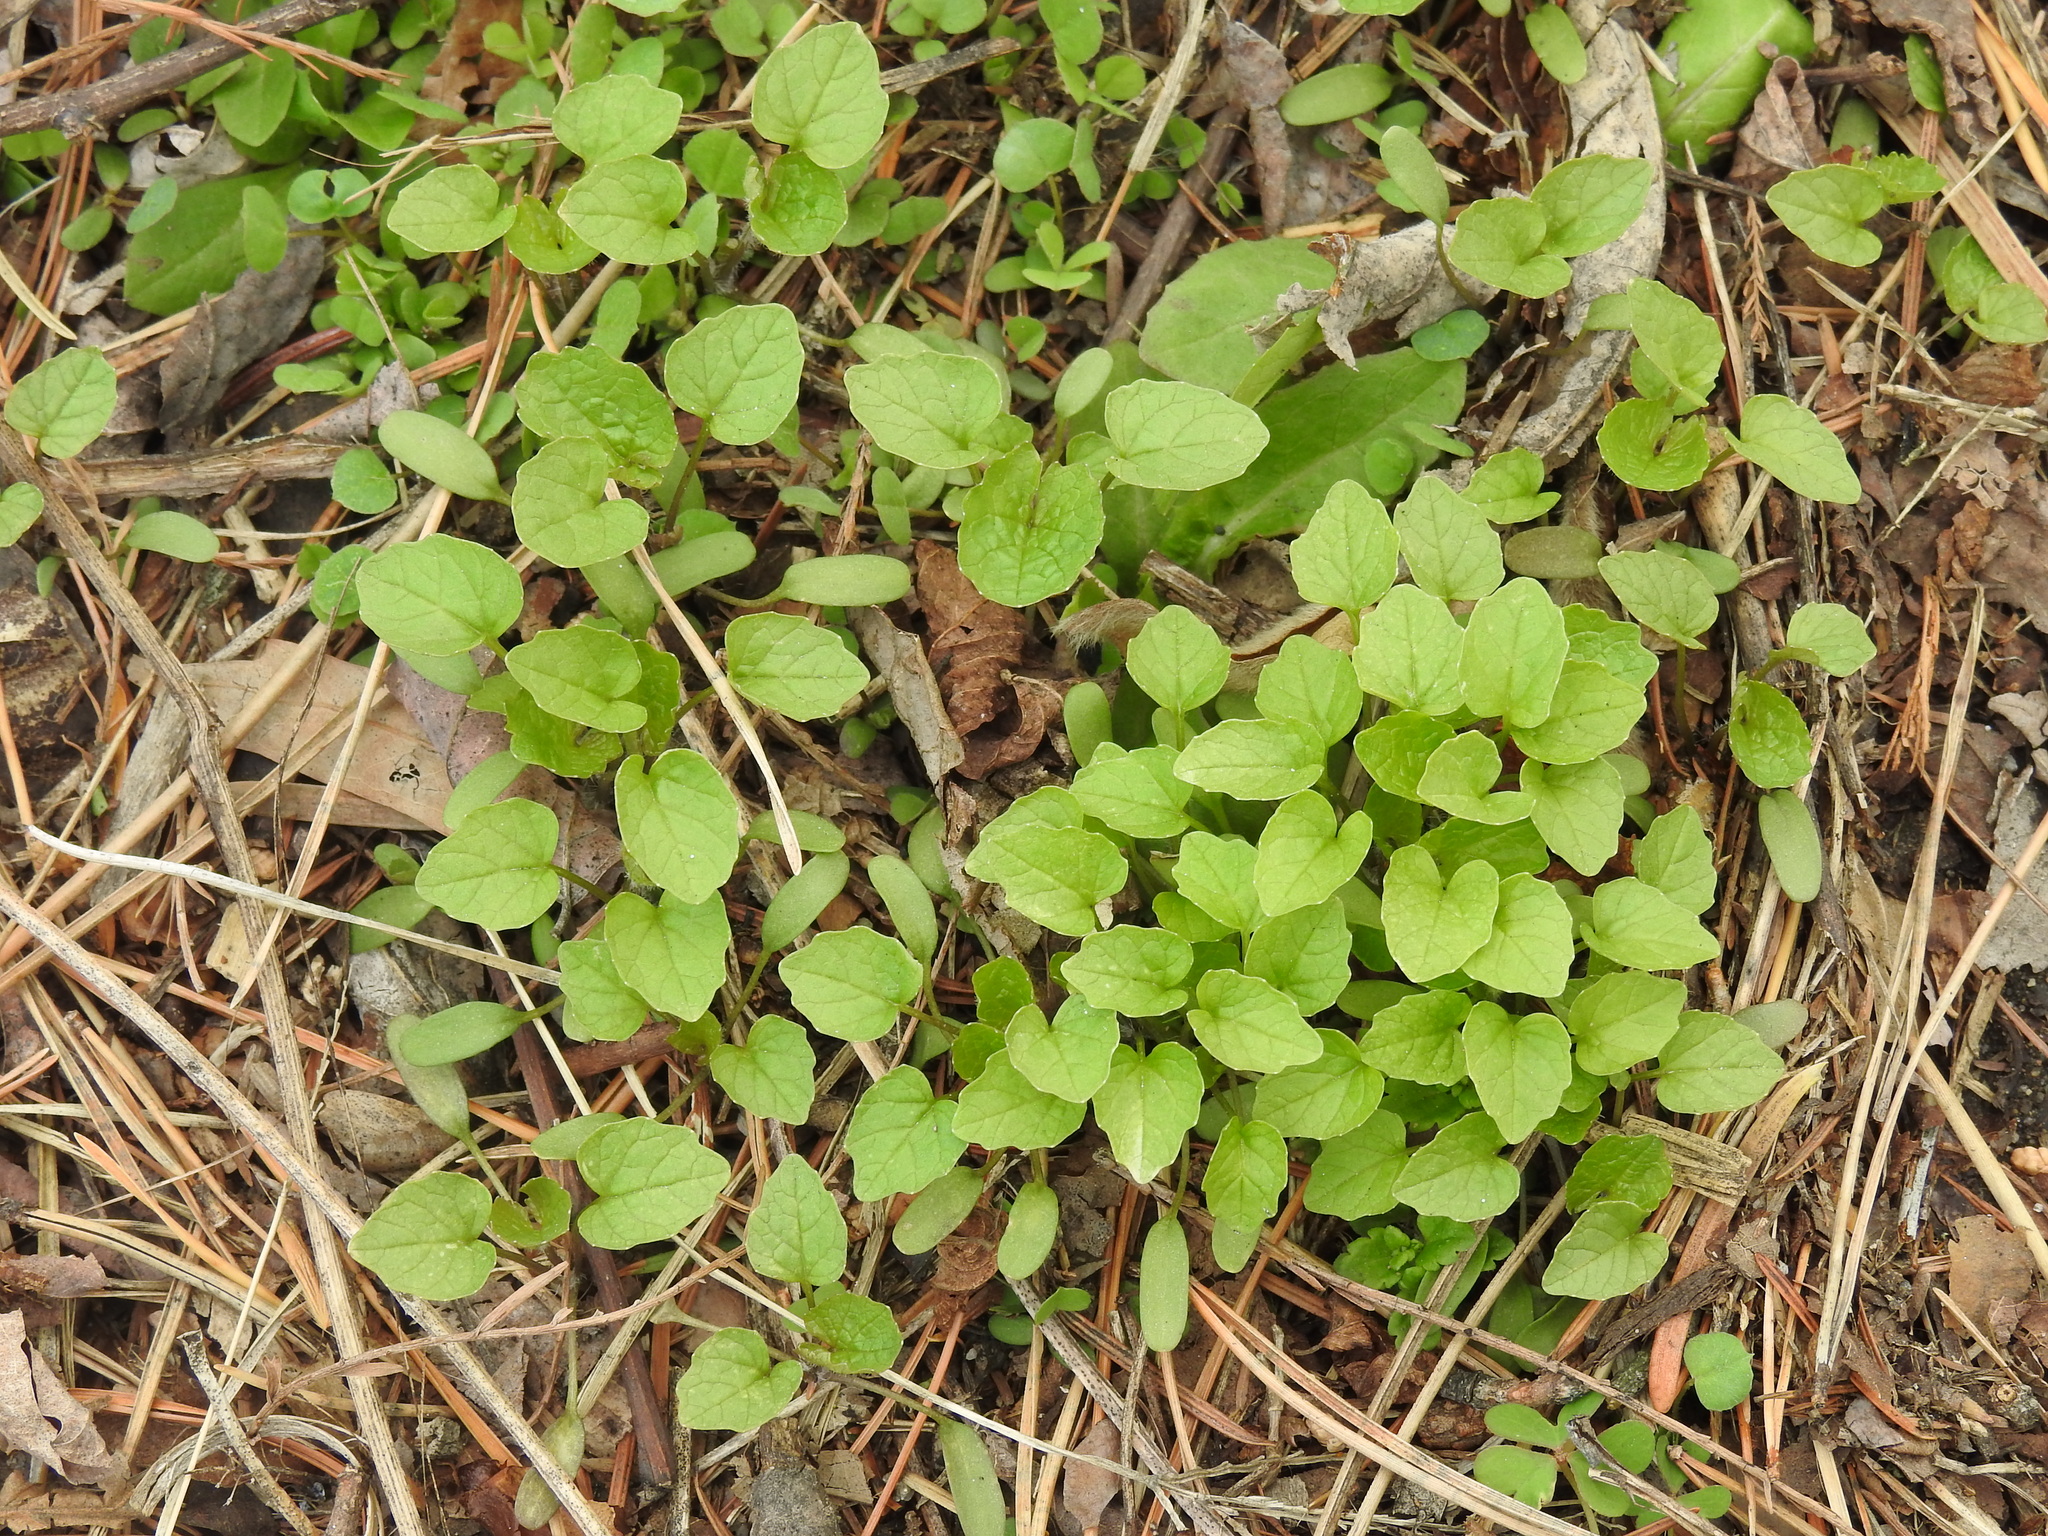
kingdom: Plantae
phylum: Tracheophyta
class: Magnoliopsida
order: Brassicales
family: Brassicaceae
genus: Alliaria
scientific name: Alliaria petiolata
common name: Garlic mustard
